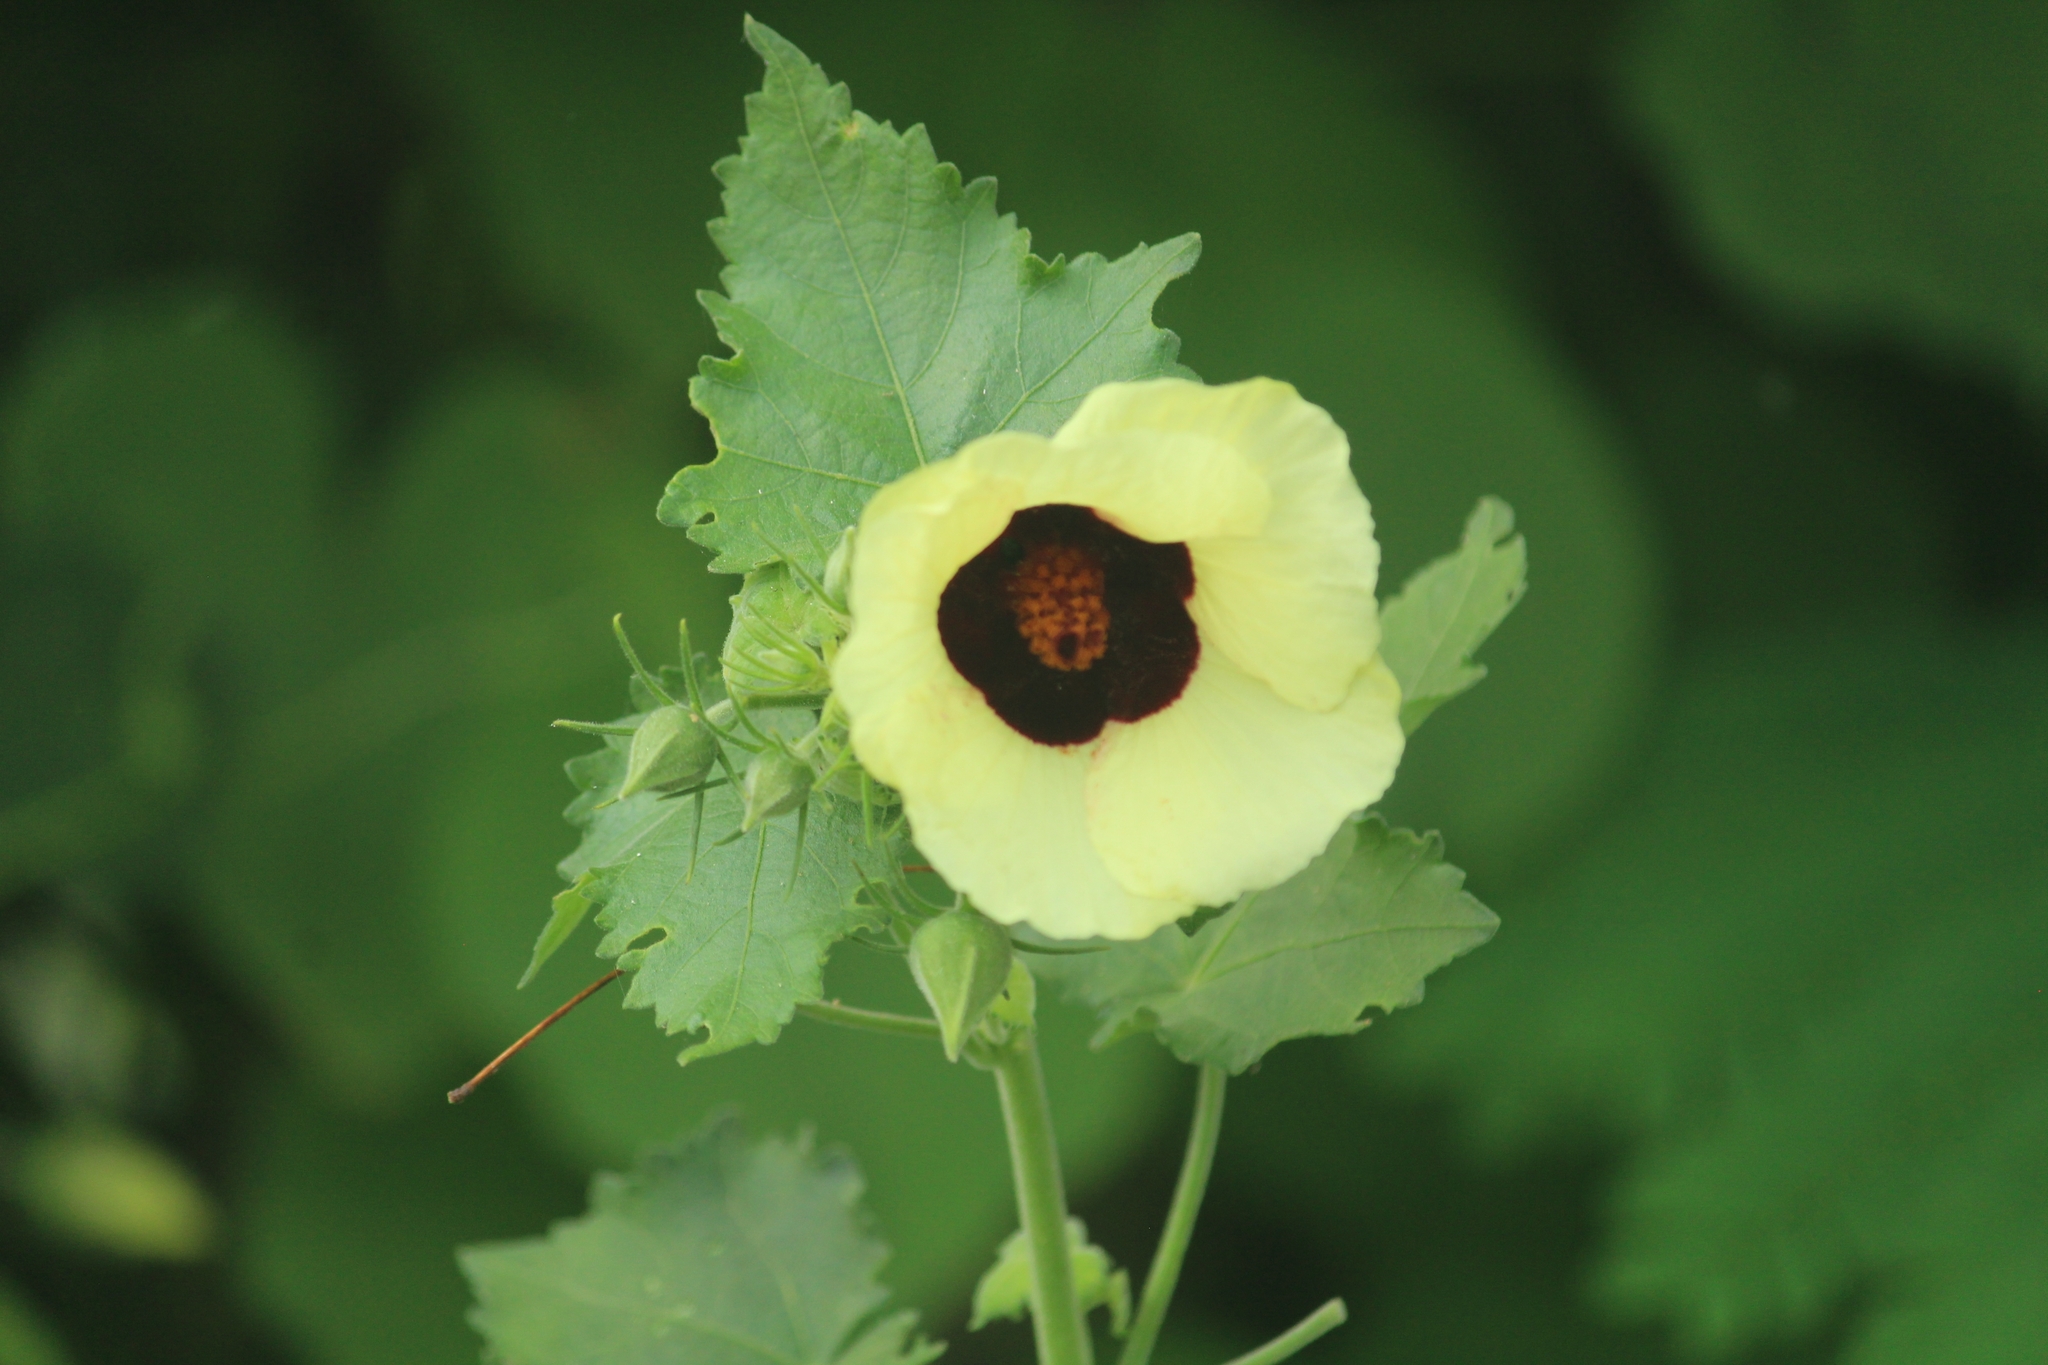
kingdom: Plantae
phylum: Tracheophyta
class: Magnoliopsida
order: Malvales
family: Malvaceae
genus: Hibiscus
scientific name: Hibiscus vitifolius
